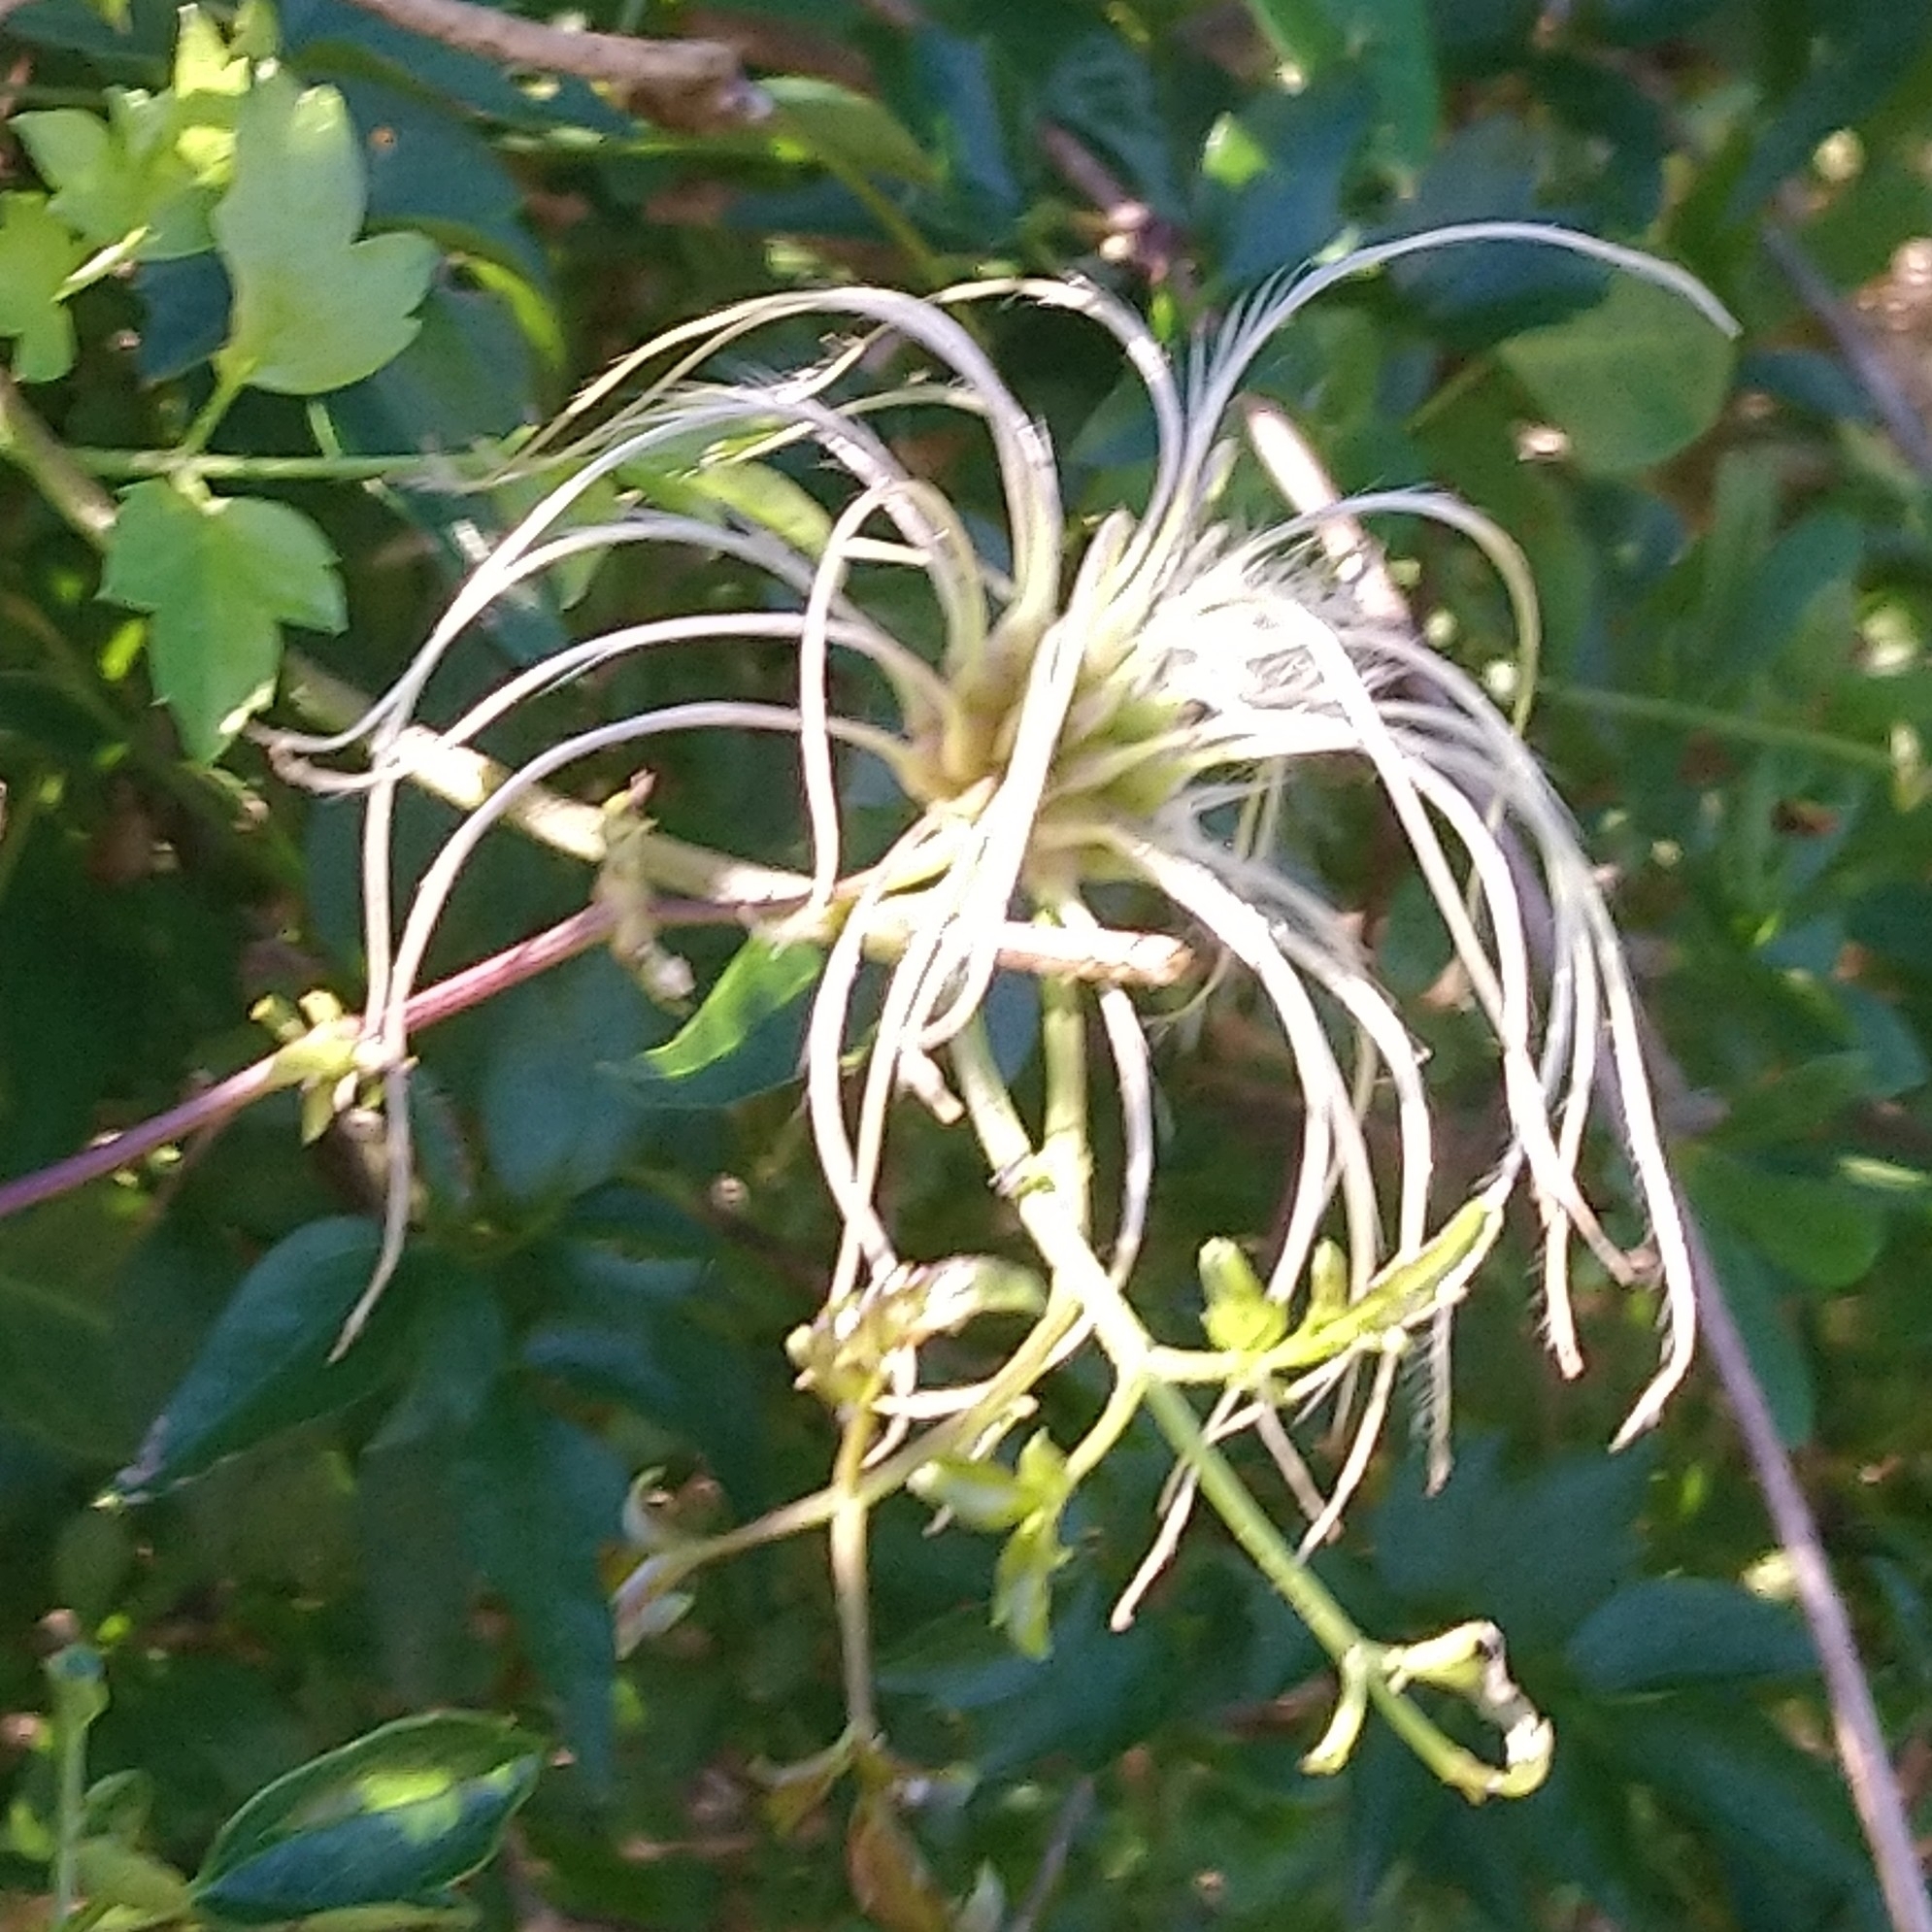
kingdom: Plantae
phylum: Tracheophyta
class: Magnoliopsida
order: Ranunculales
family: Ranunculaceae
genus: Clematis
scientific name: Clematis brachiata
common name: Traveler's-joy
